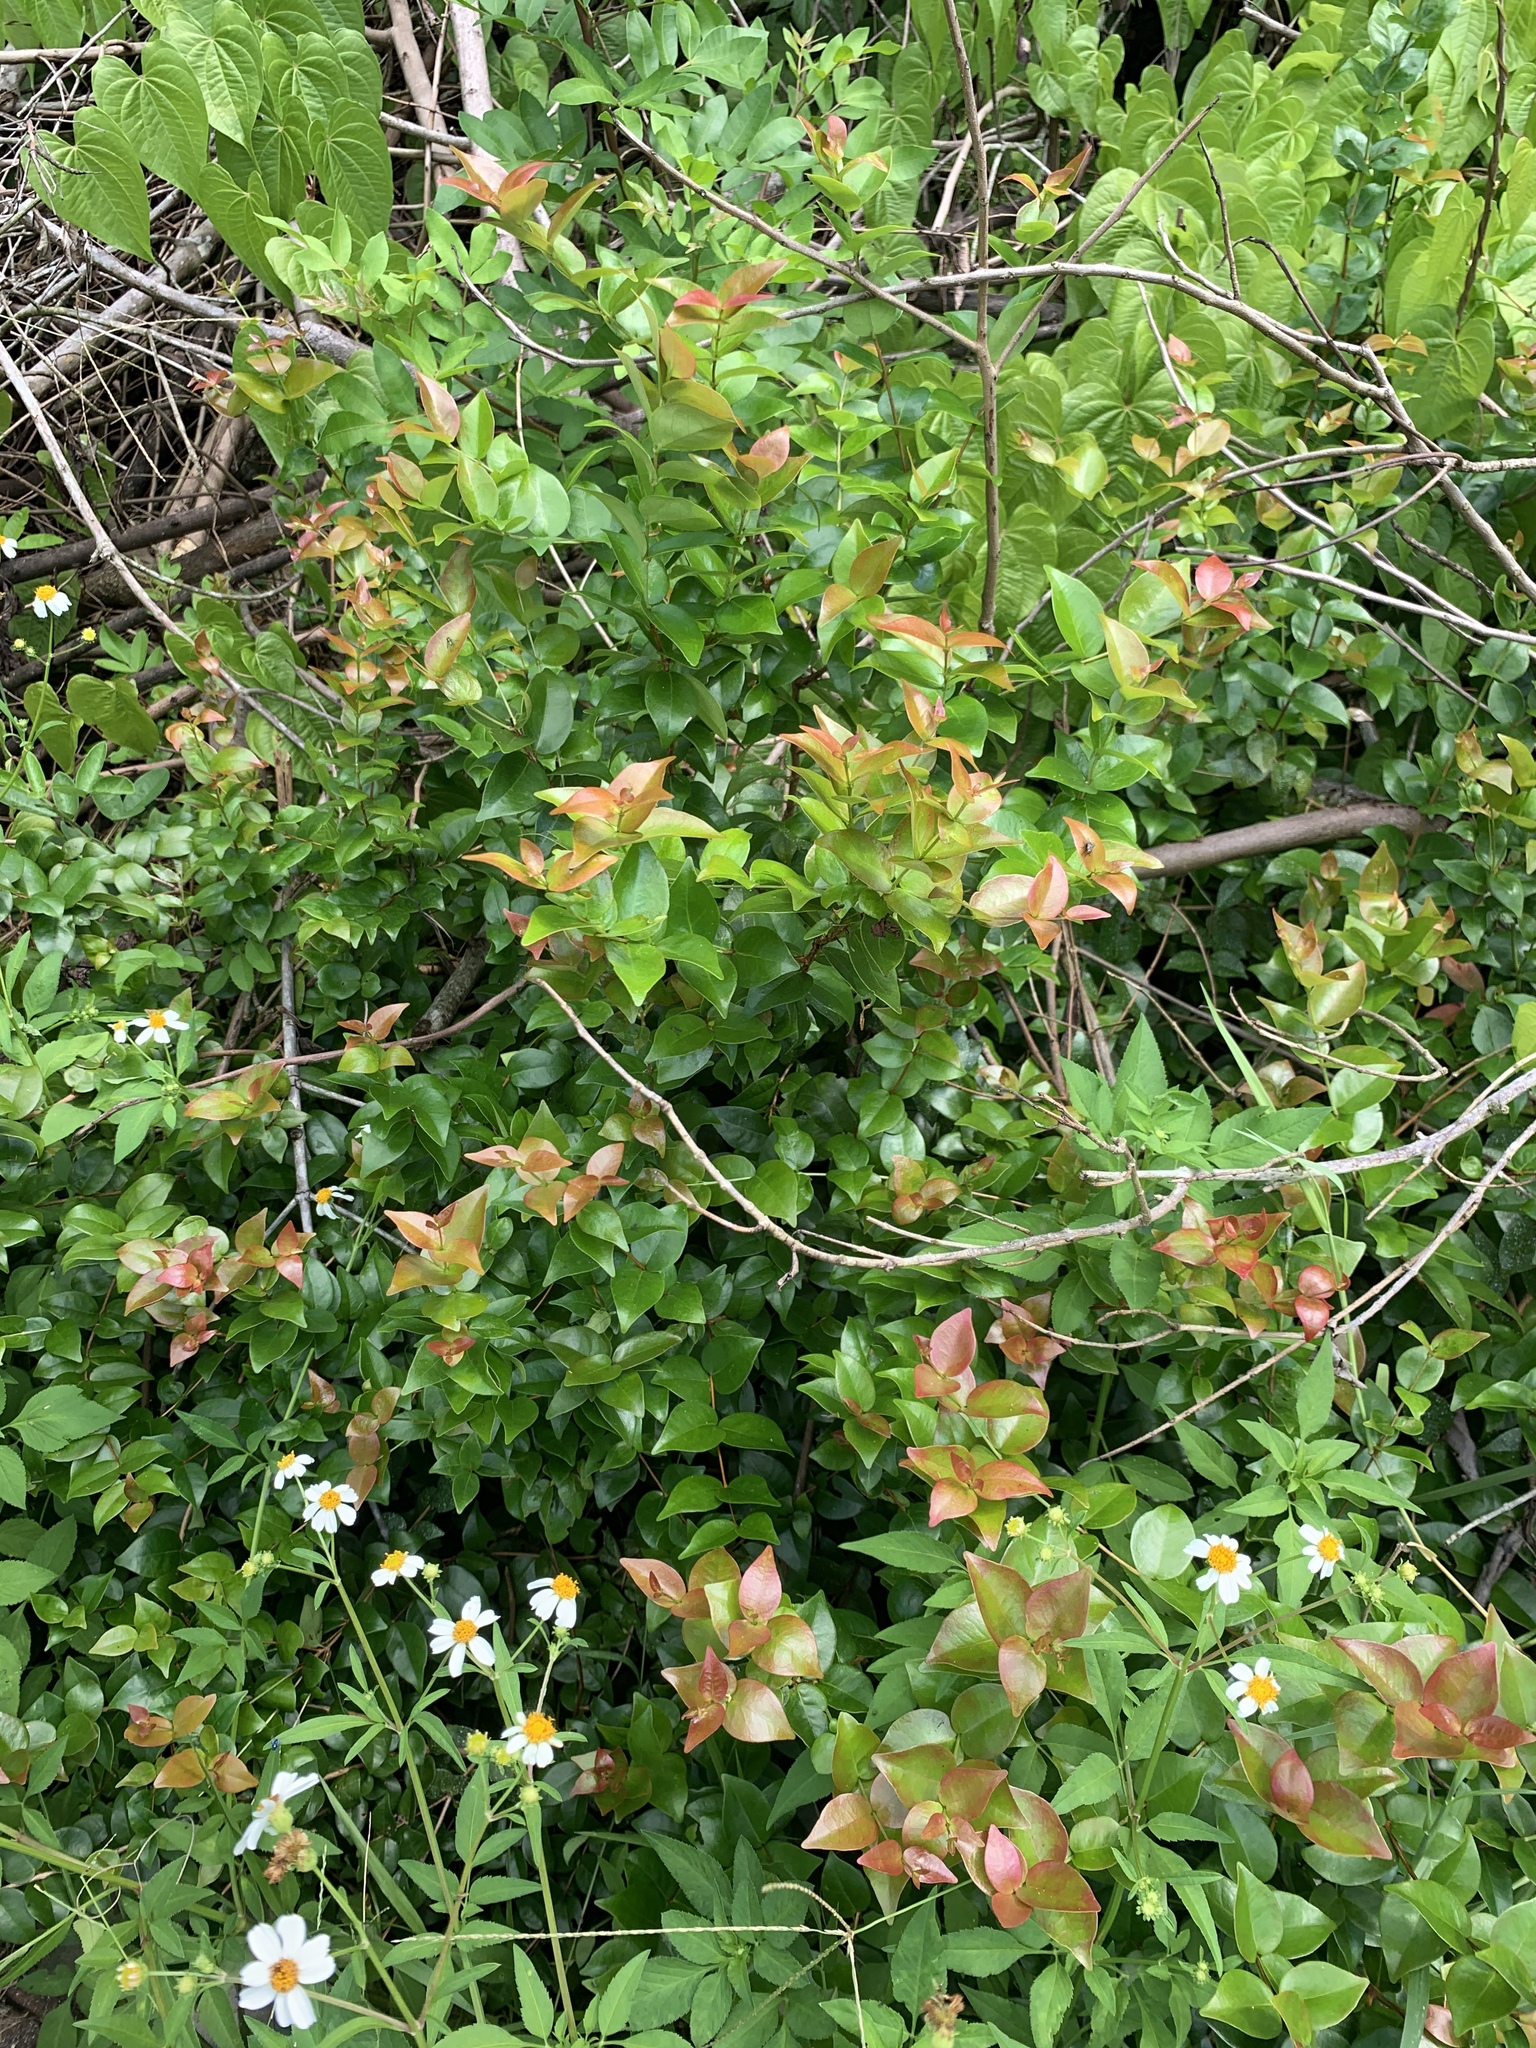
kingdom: Plantae
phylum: Tracheophyta
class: Magnoliopsida
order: Myrtales
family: Myrtaceae
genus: Eugenia
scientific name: Eugenia uniflora
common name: Surinam cherry
